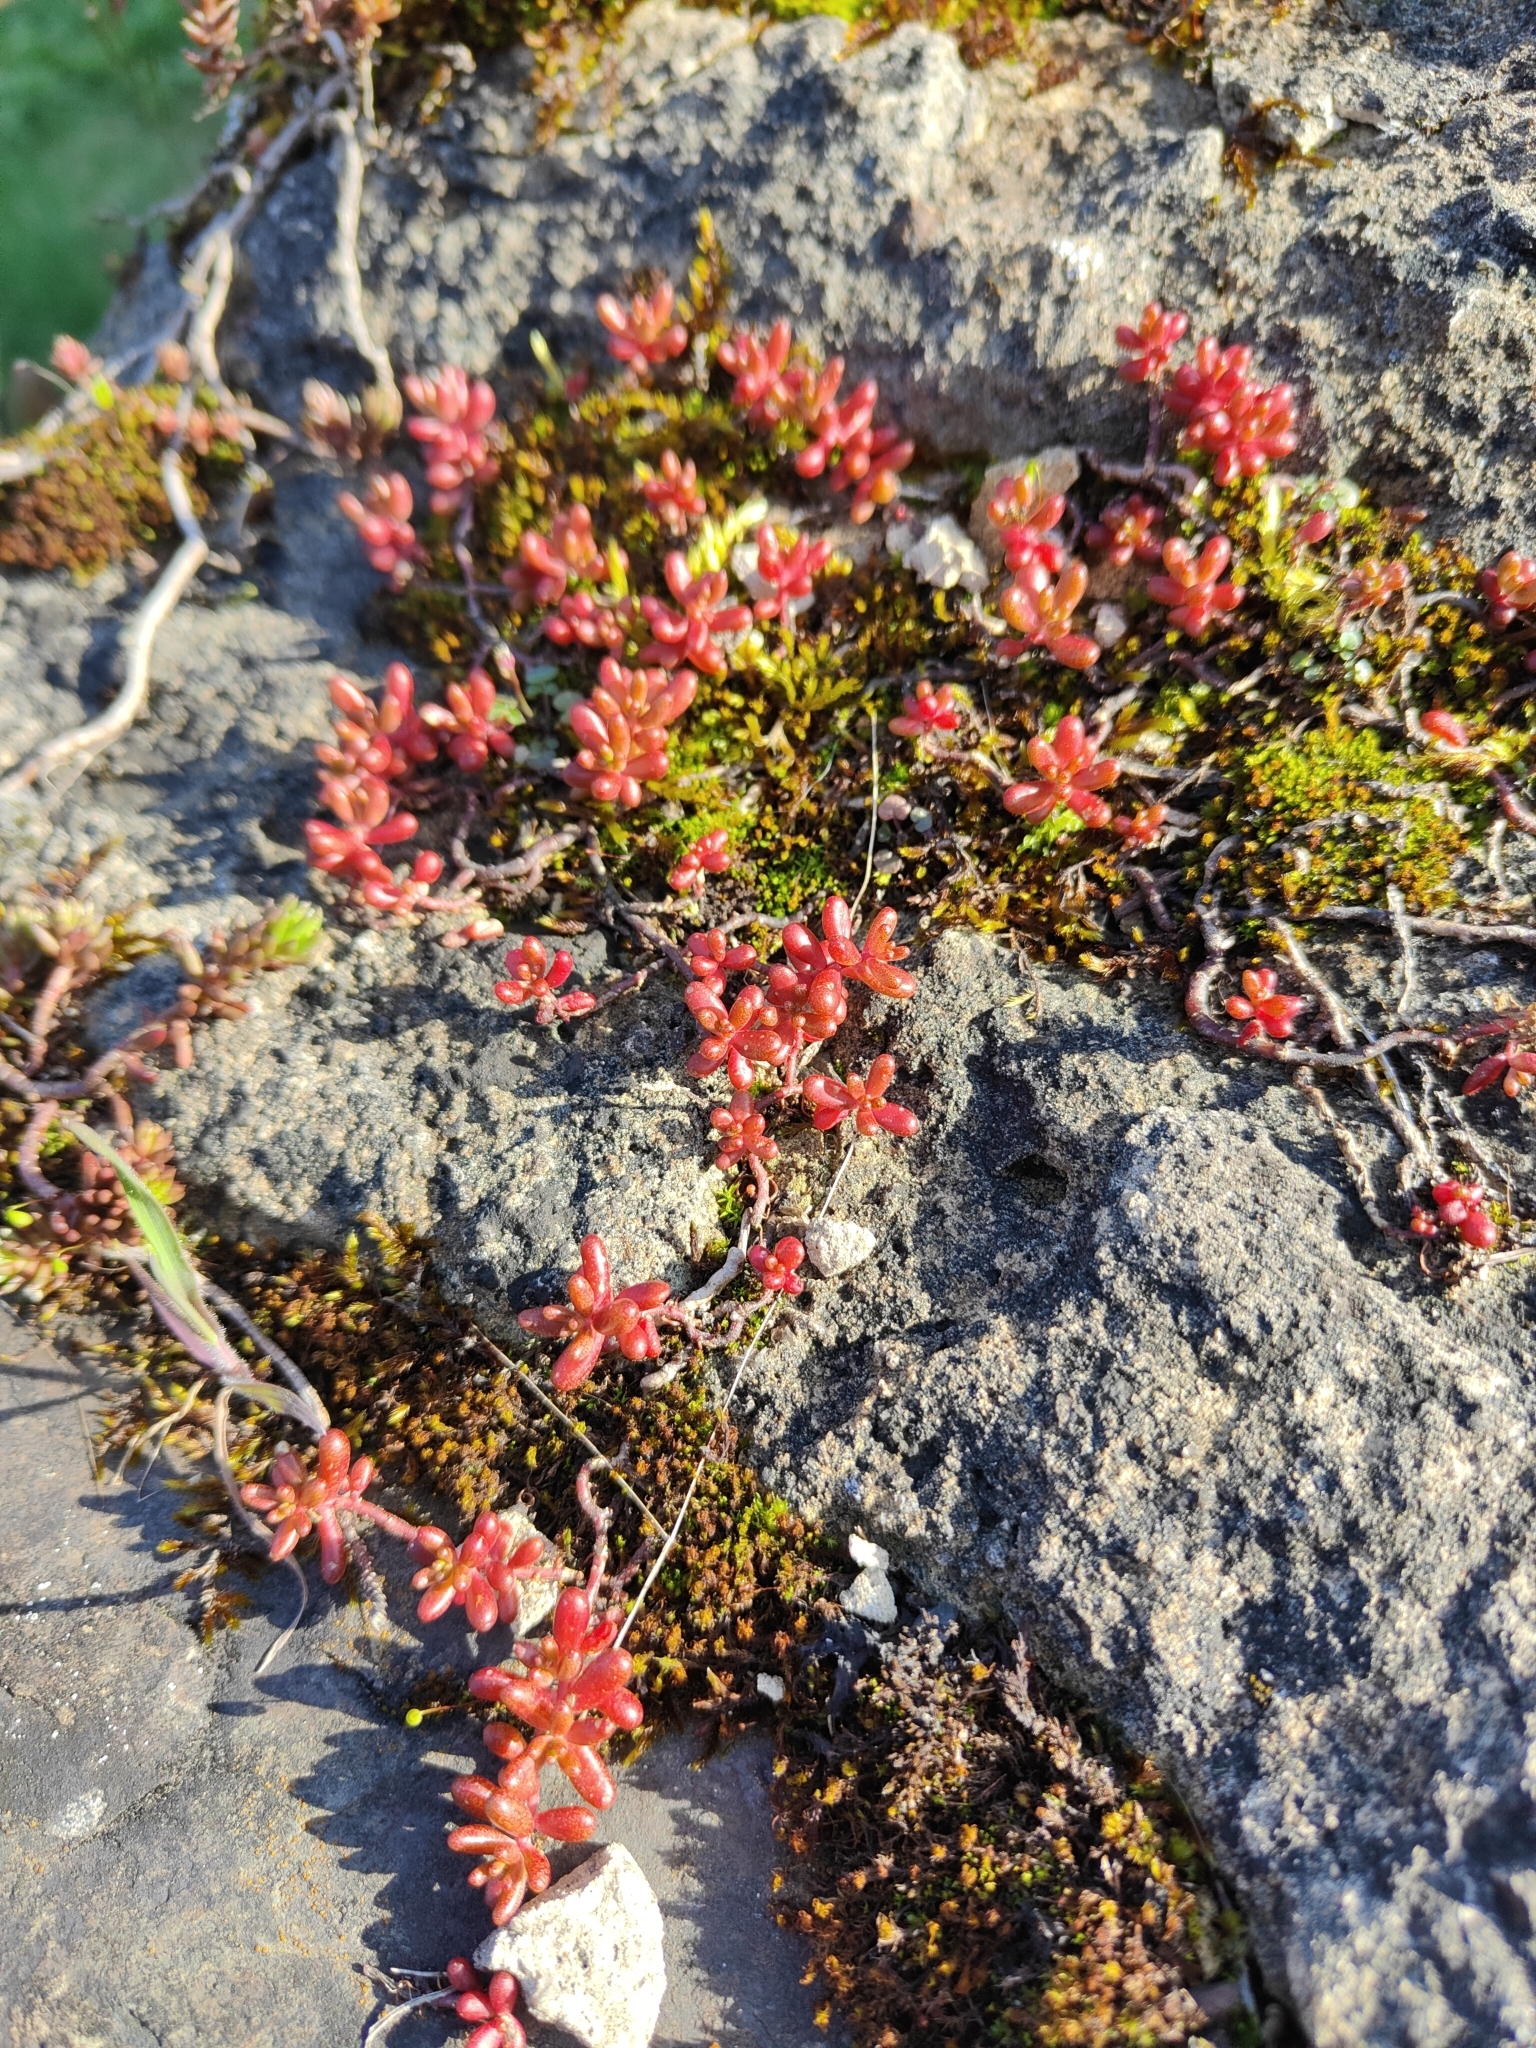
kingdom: Plantae
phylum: Tracheophyta
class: Magnoliopsida
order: Saxifragales
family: Crassulaceae
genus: Sedum
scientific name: Sedum album
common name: White stonecrop
